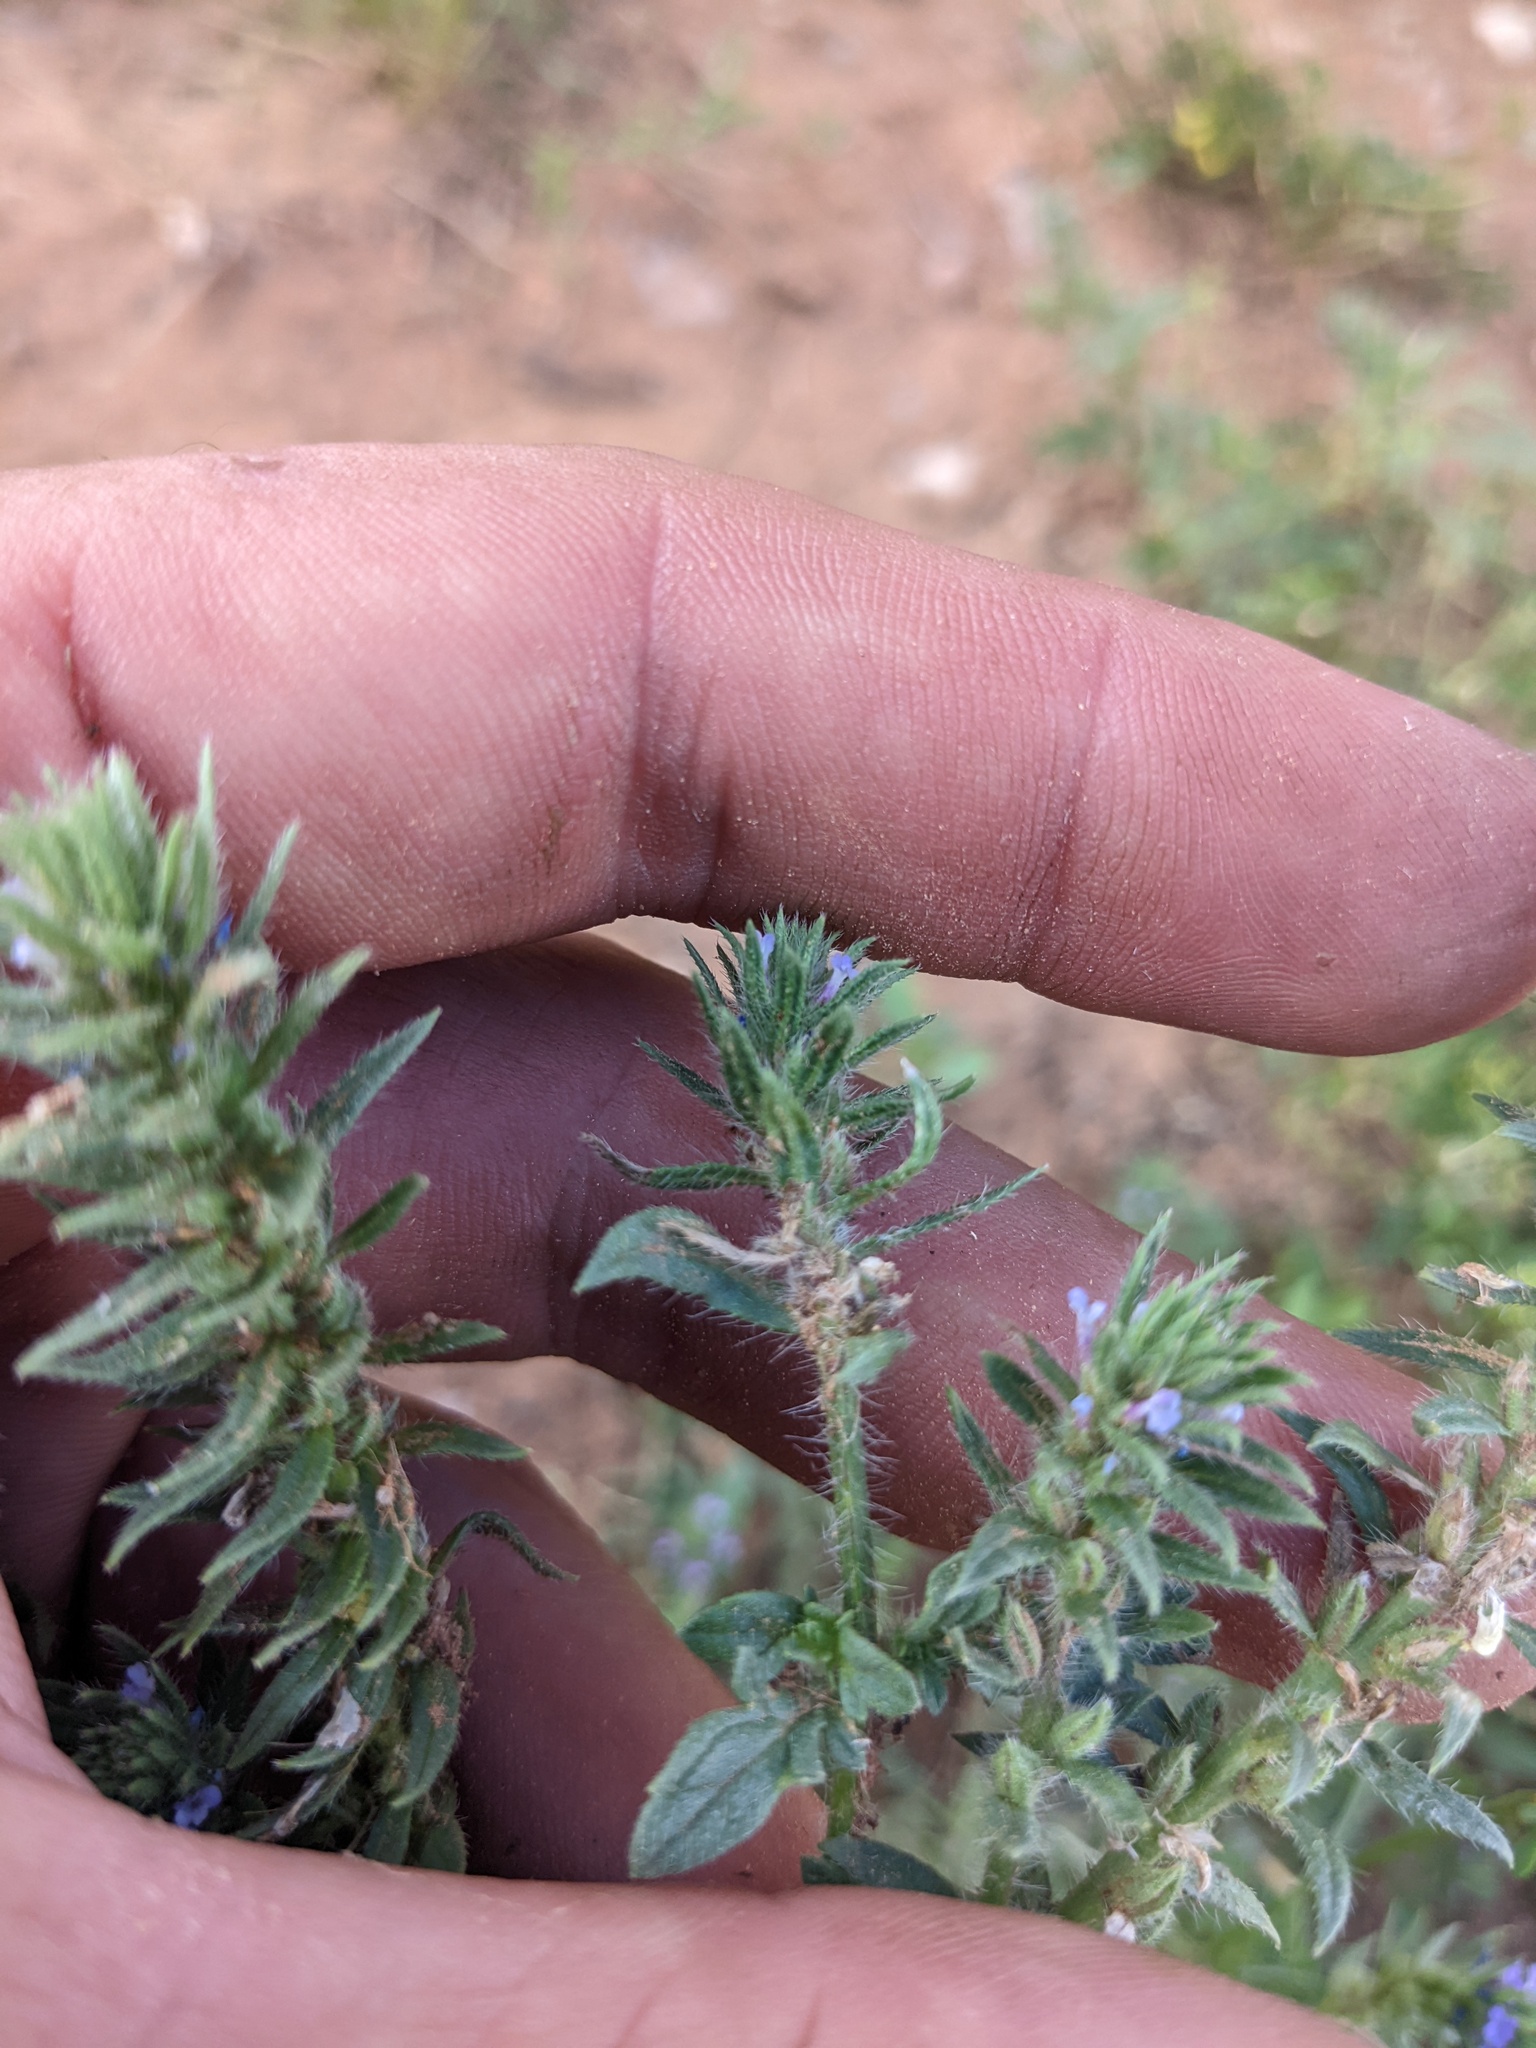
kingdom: Plantae
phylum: Tracheophyta
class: Magnoliopsida
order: Lamiales
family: Verbenaceae
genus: Verbena
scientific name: Verbena bracteata
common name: Bracted vervain
